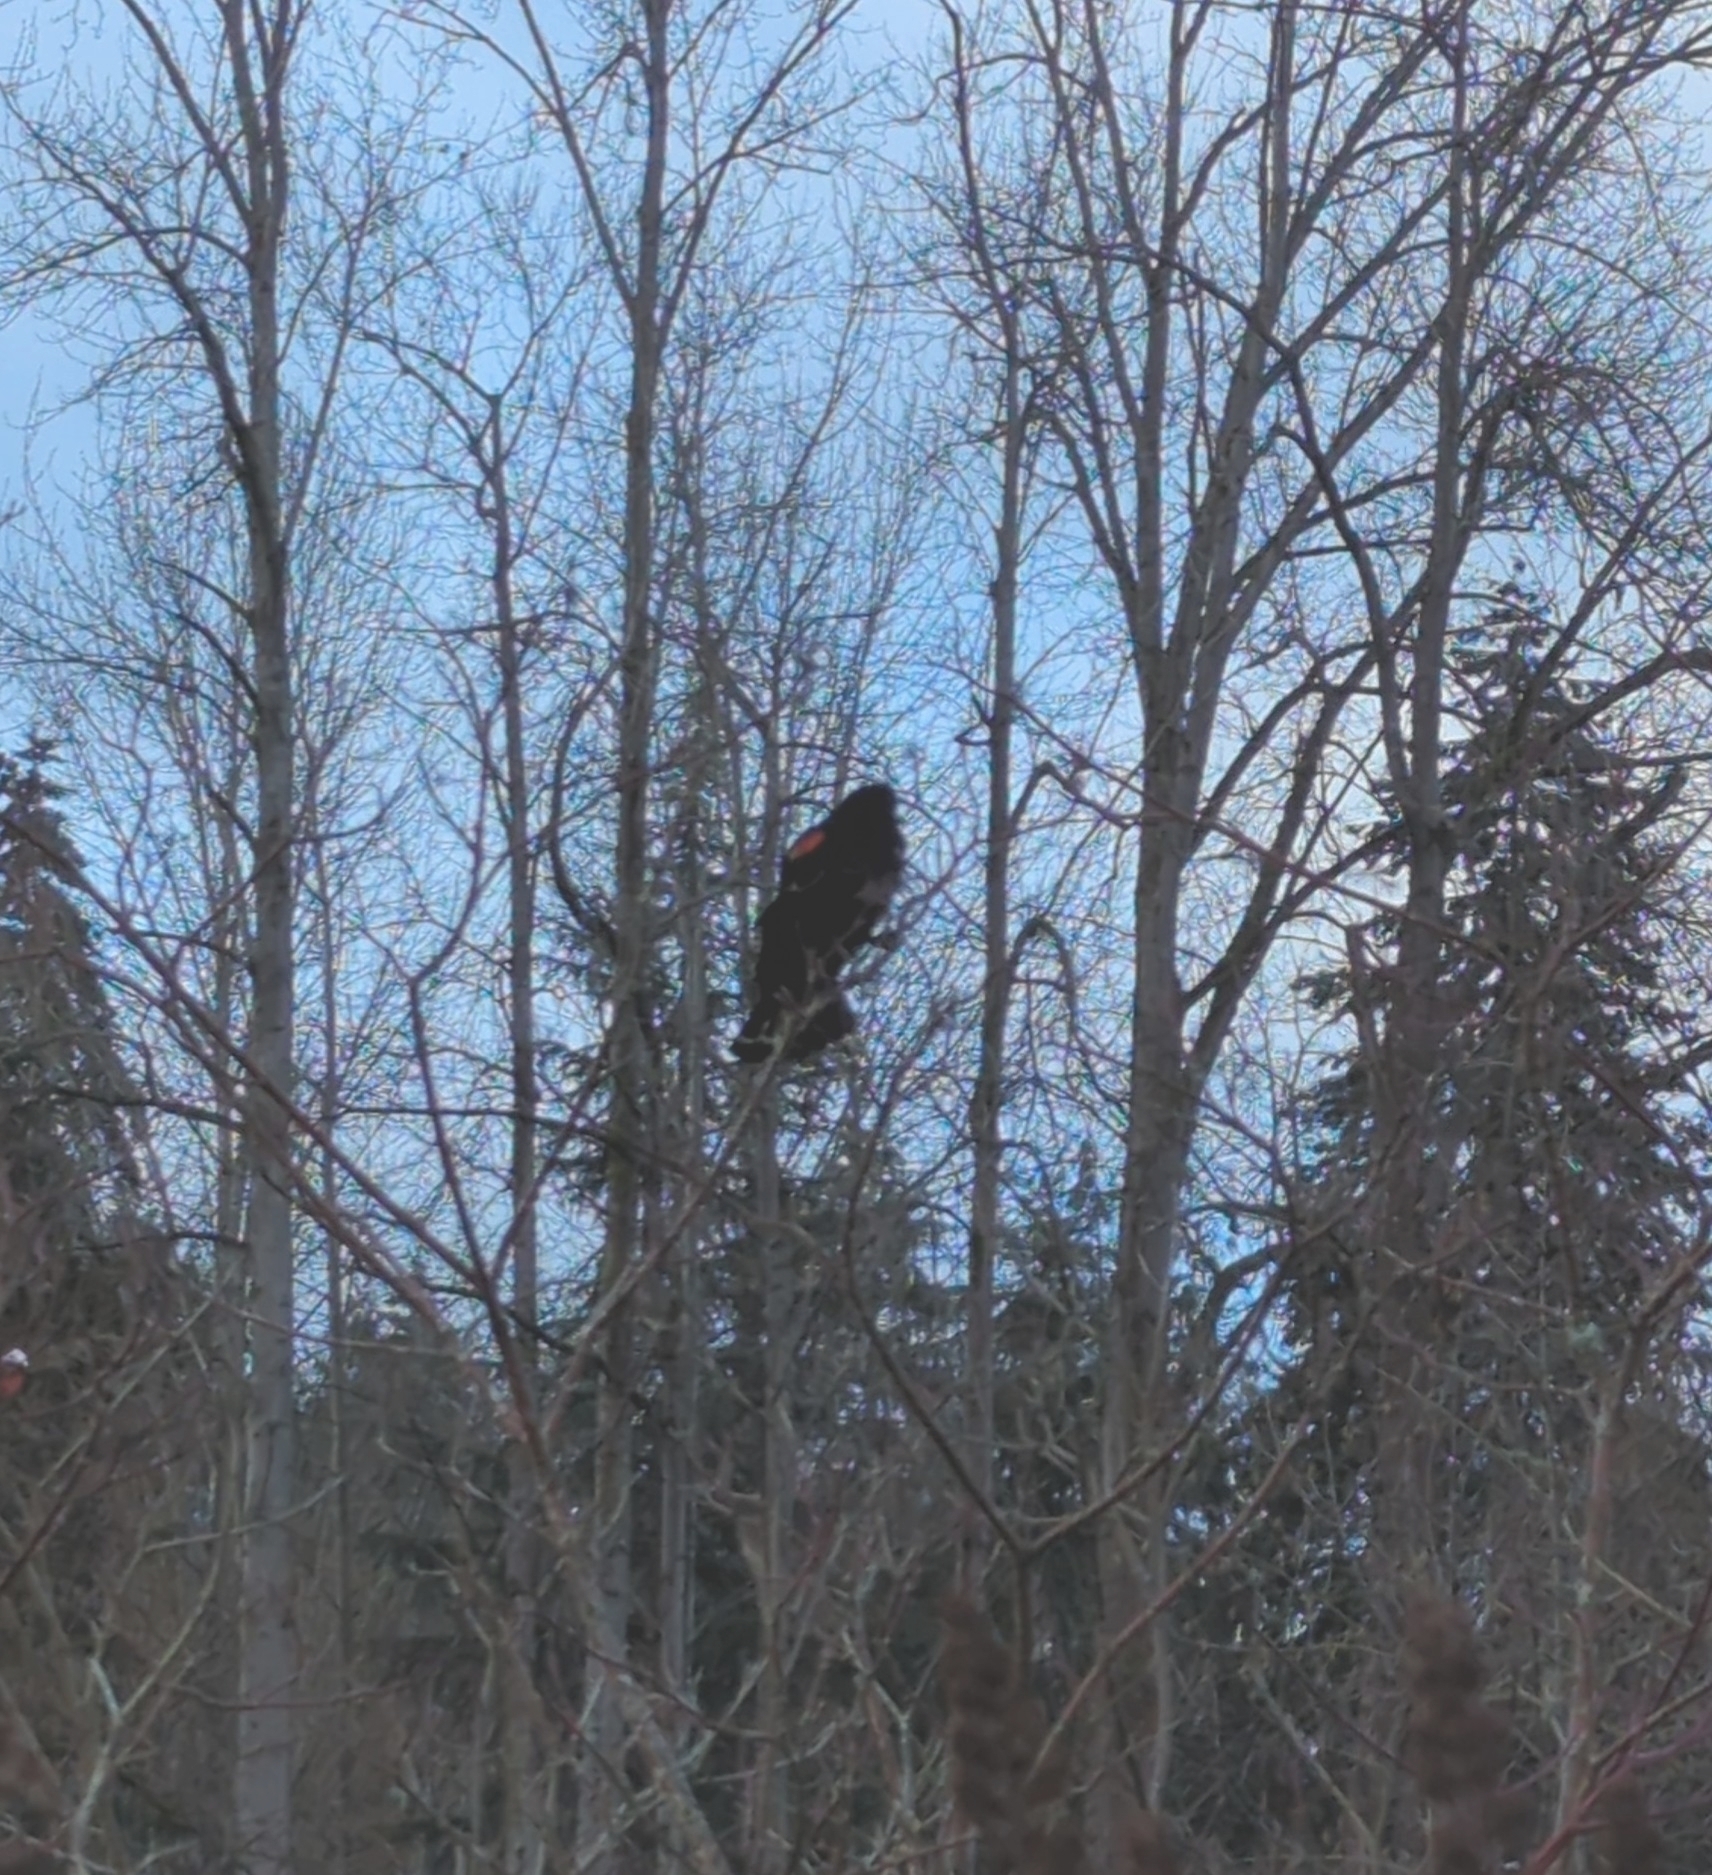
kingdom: Animalia
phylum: Chordata
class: Aves
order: Passeriformes
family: Icteridae
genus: Agelaius
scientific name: Agelaius phoeniceus
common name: Red-winged blackbird
